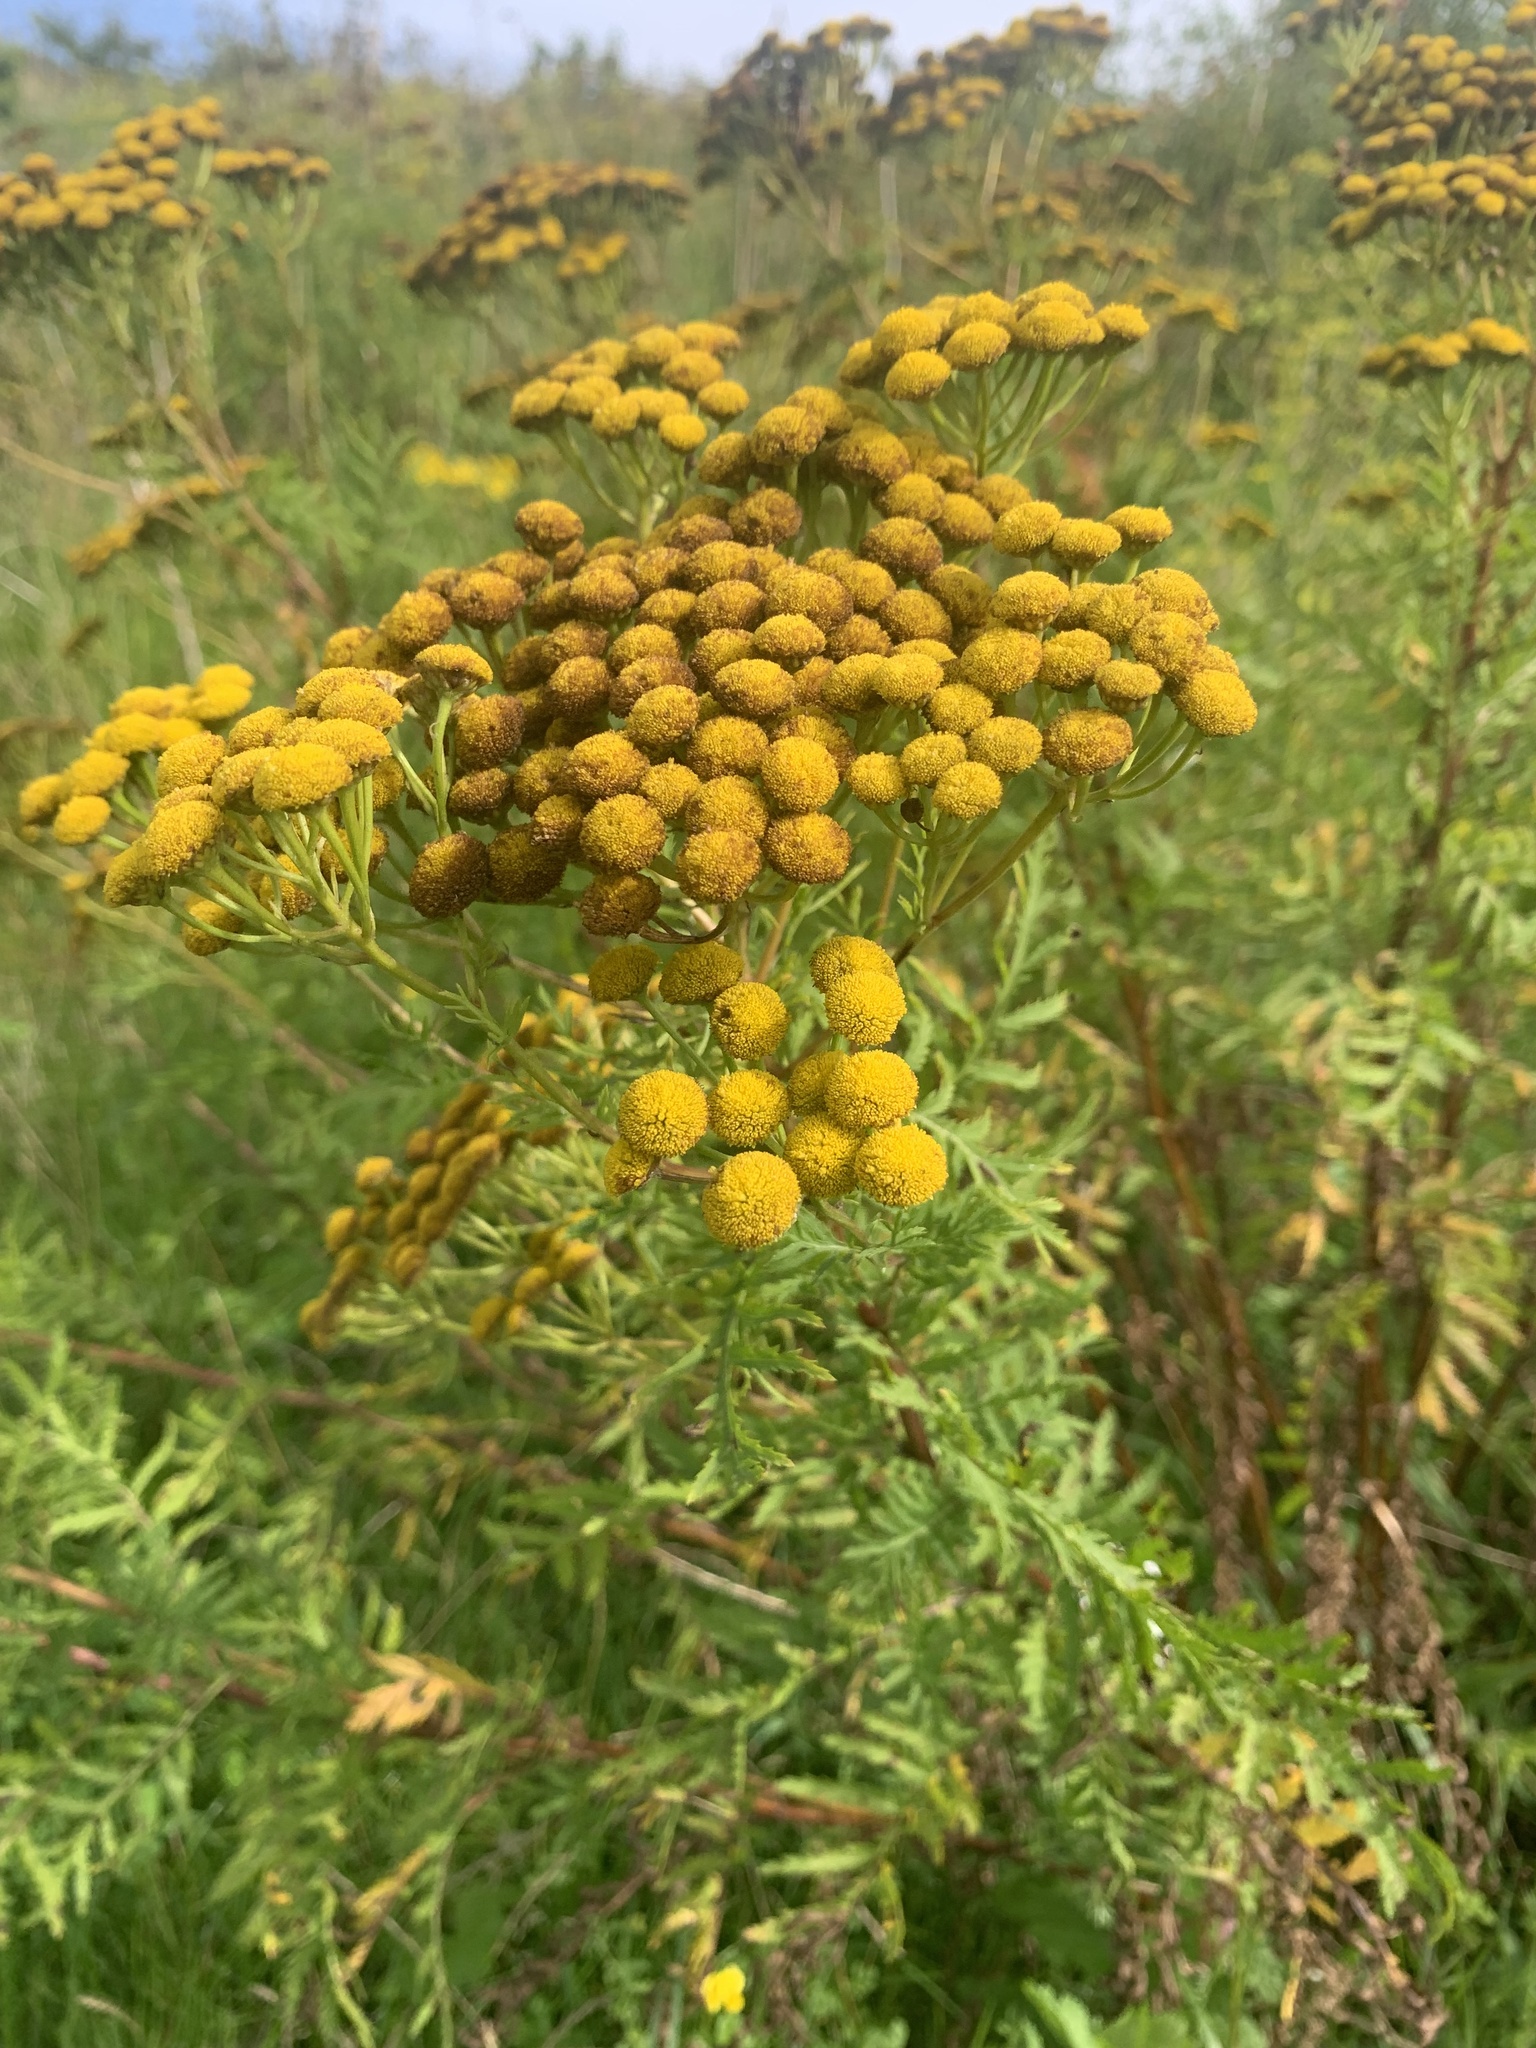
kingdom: Plantae
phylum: Tracheophyta
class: Magnoliopsida
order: Asterales
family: Asteraceae
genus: Tanacetum
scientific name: Tanacetum vulgare
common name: Common tansy
